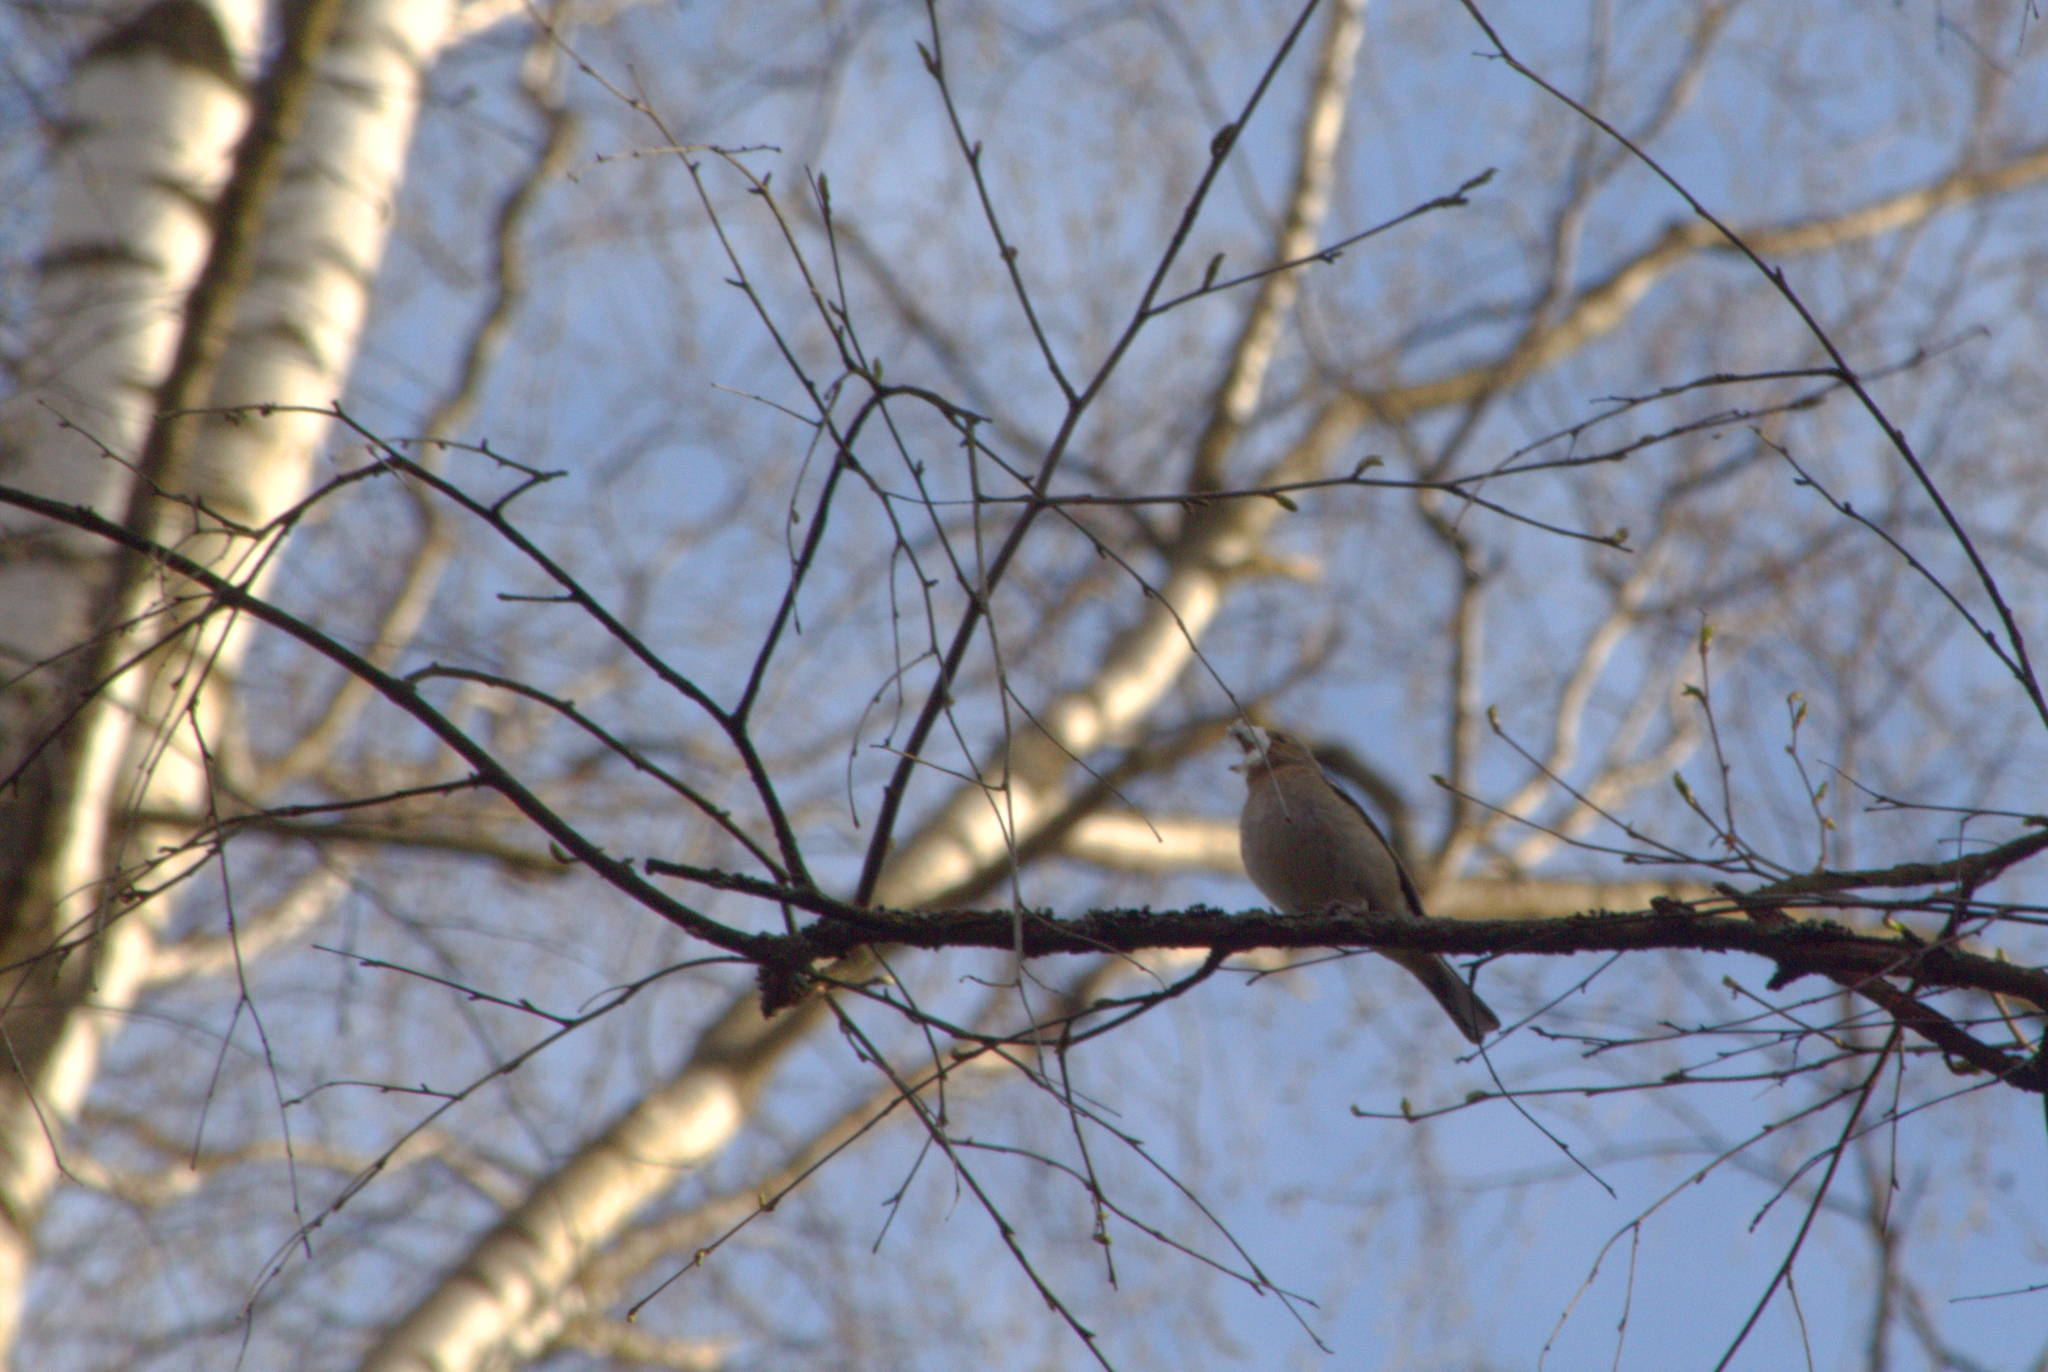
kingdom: Animalia
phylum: Chordata
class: Aves
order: Passeriformes
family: Fringillidae
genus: Fringilla
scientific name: Fringilla coelebs
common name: Common chaffinch
